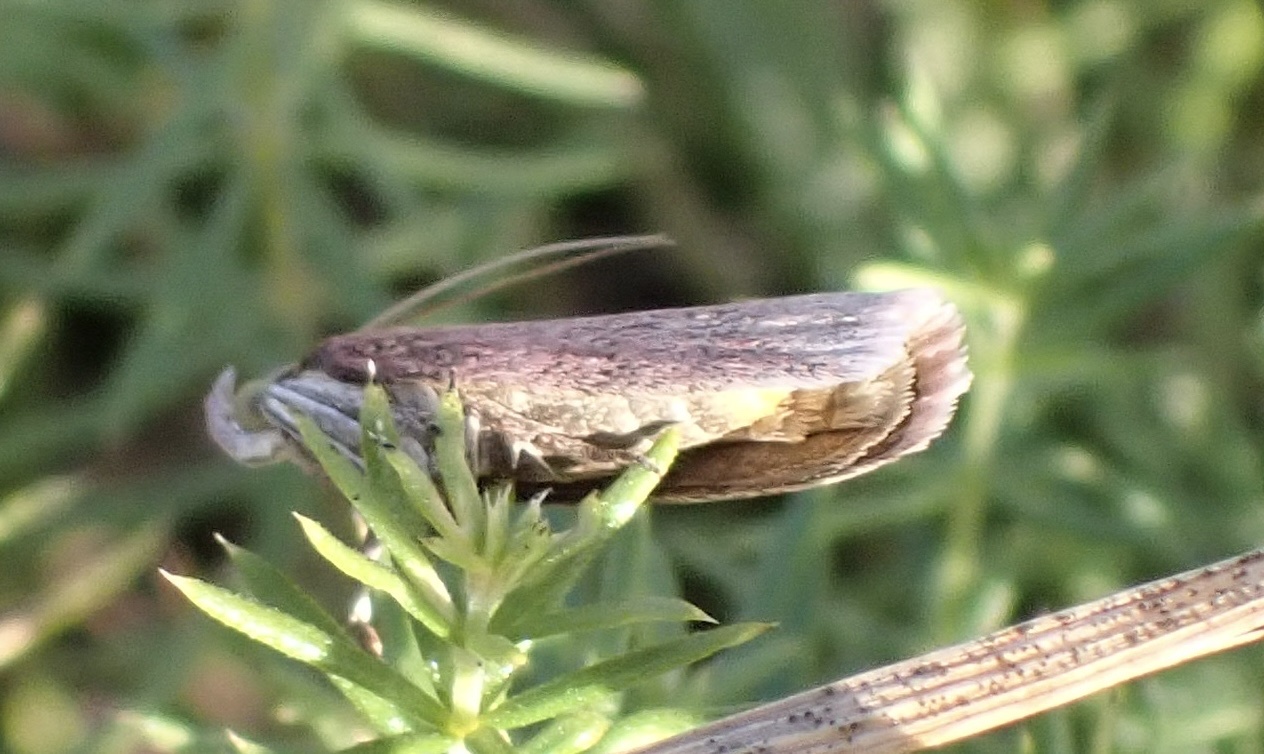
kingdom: Animalia
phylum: Arthropoda
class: Insecta
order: Lepidoptera
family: Pyralidae
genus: Oncocera
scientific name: Oncocera semirubella
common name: Rosy-striped knot-horn
